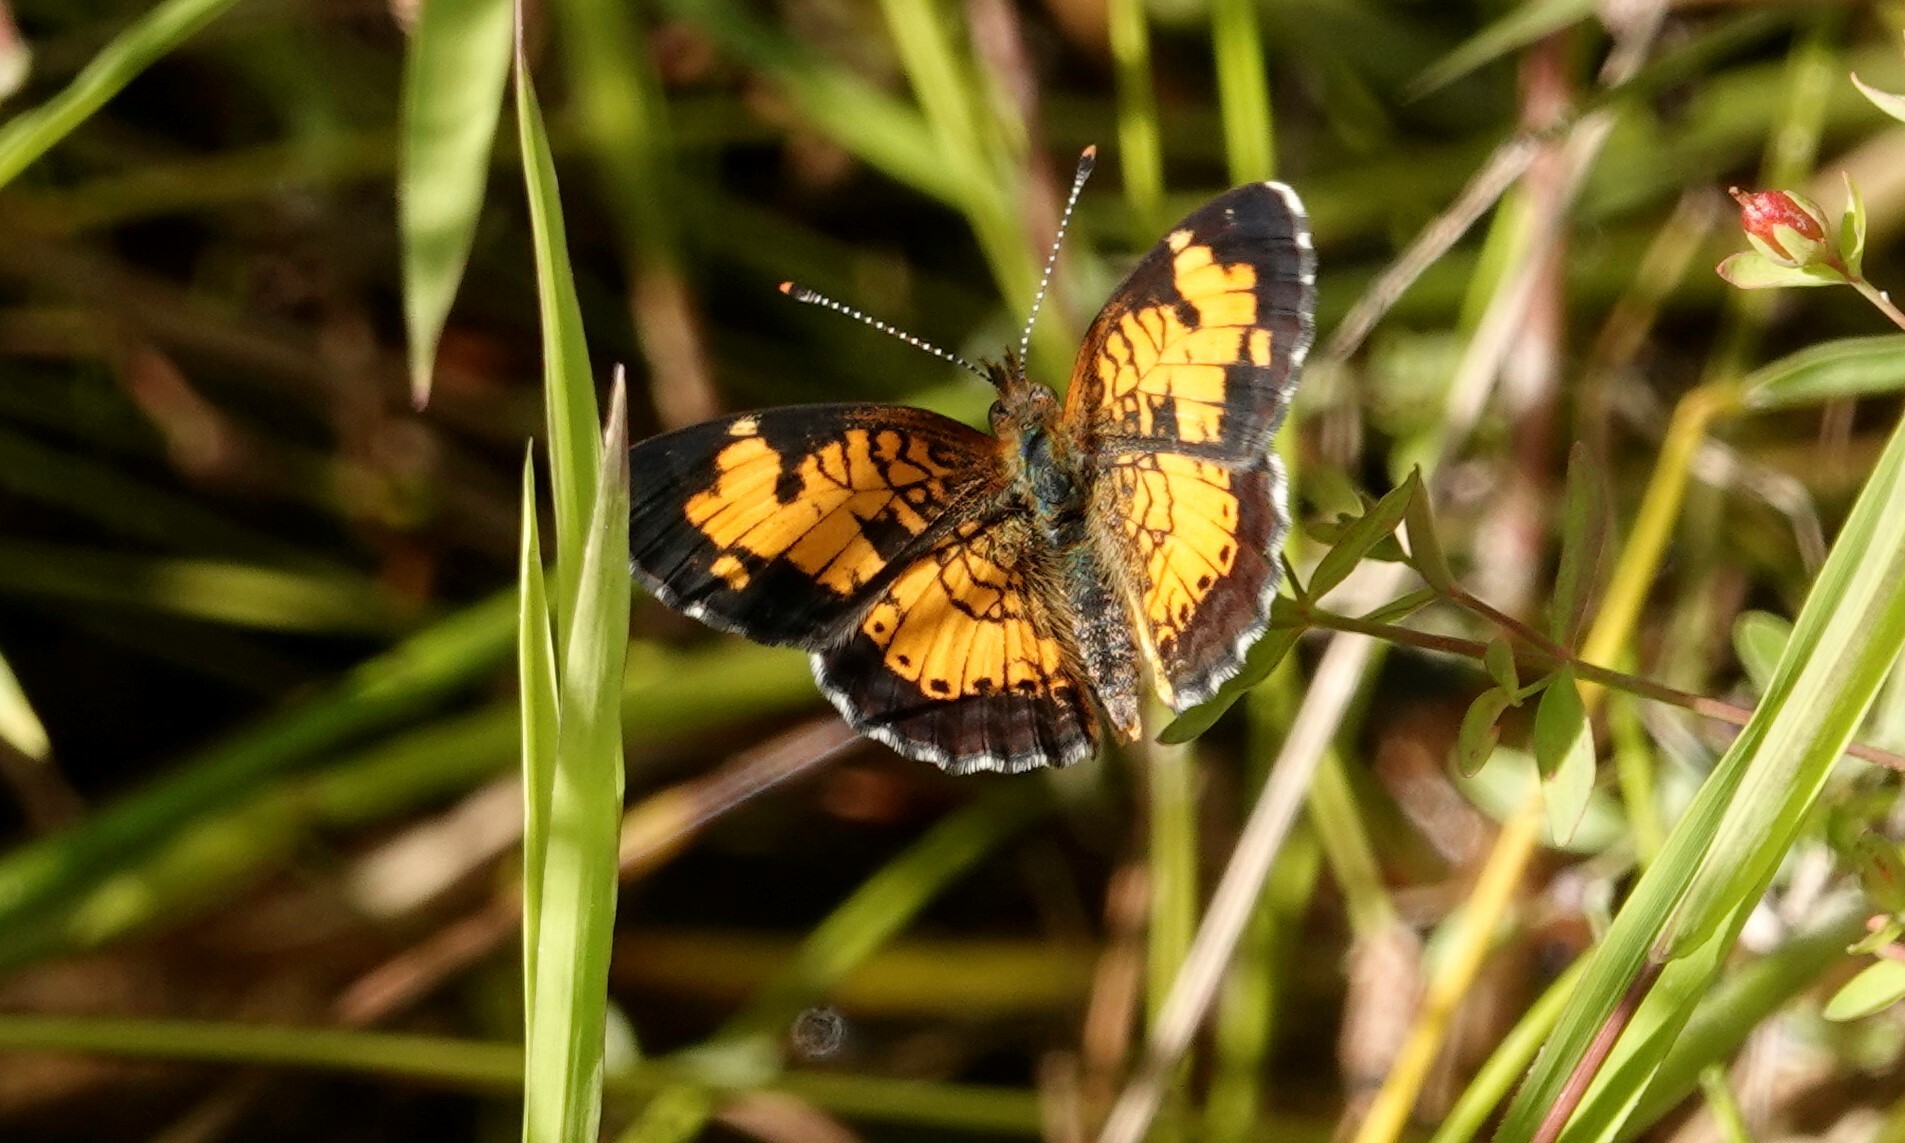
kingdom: Animalia
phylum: Arthropoda
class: Insecta
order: Lepidoptera
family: Nymphalidae
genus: Phyciodes
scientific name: Phyciodes tharos
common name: Pearl crescent
